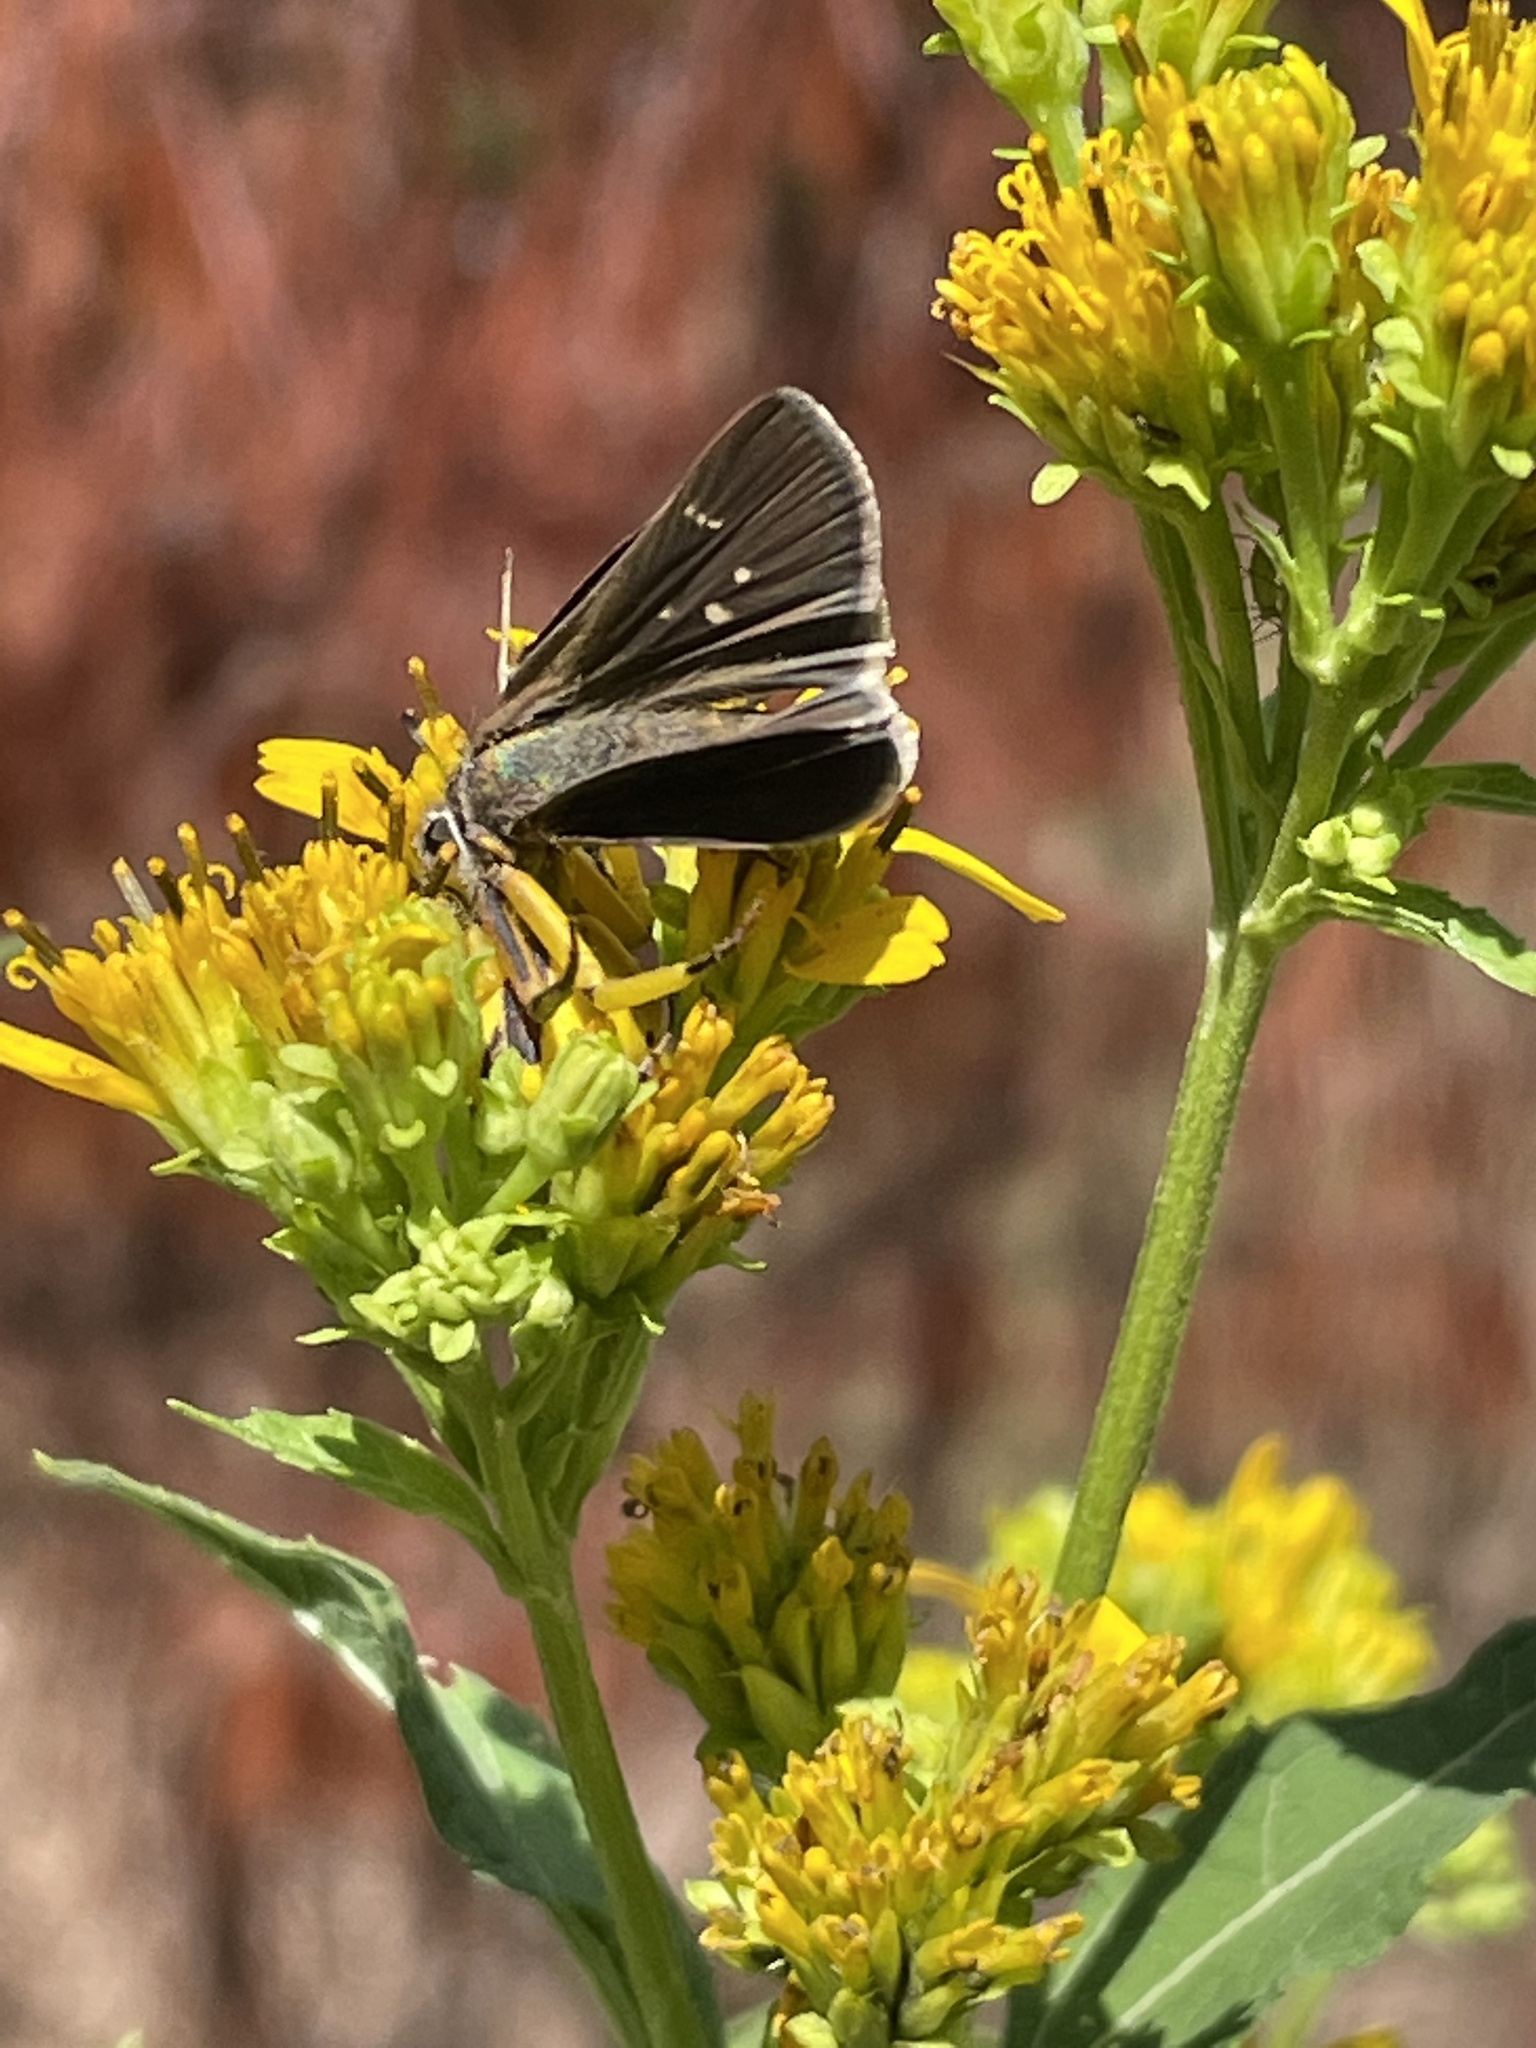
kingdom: Animalia
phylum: Arthropoda
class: Insecta
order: Lepidoptera
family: Hesperiidae
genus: Lerodea
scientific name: Lerodea eufala
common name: Eufala skipper
